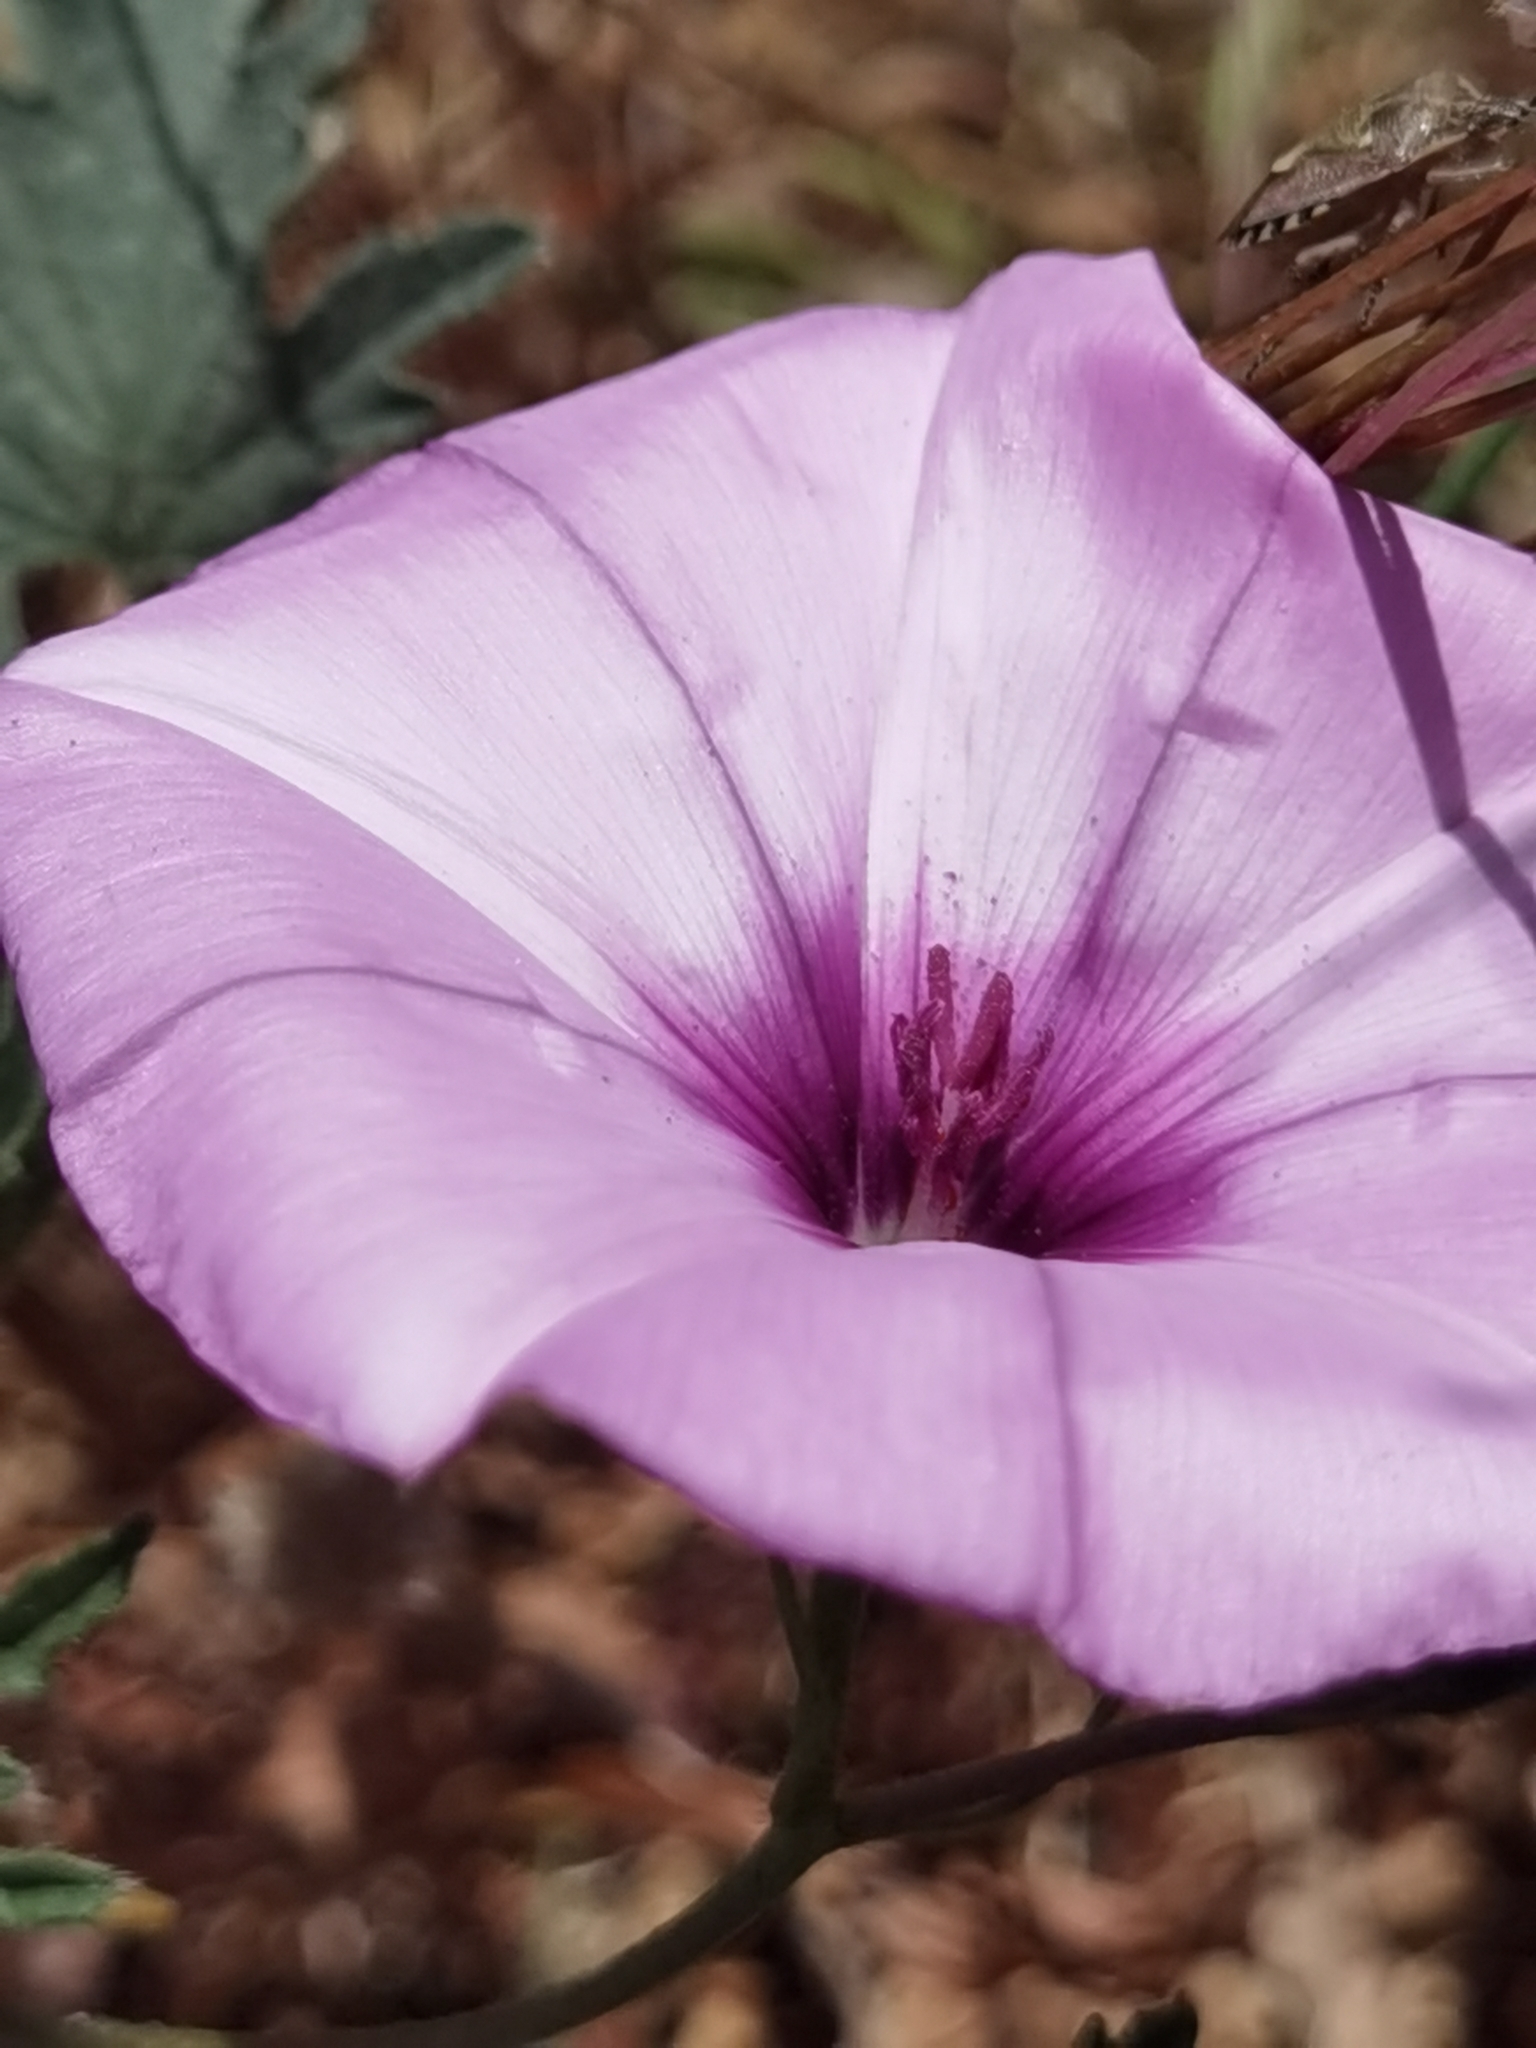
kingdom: Plantae
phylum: Tracheophyta
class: Magnoliopsida
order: Solanales
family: Convolvulaceae
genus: Convolvulus
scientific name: Convolvulus althaeoides
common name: Mallow bindweed
